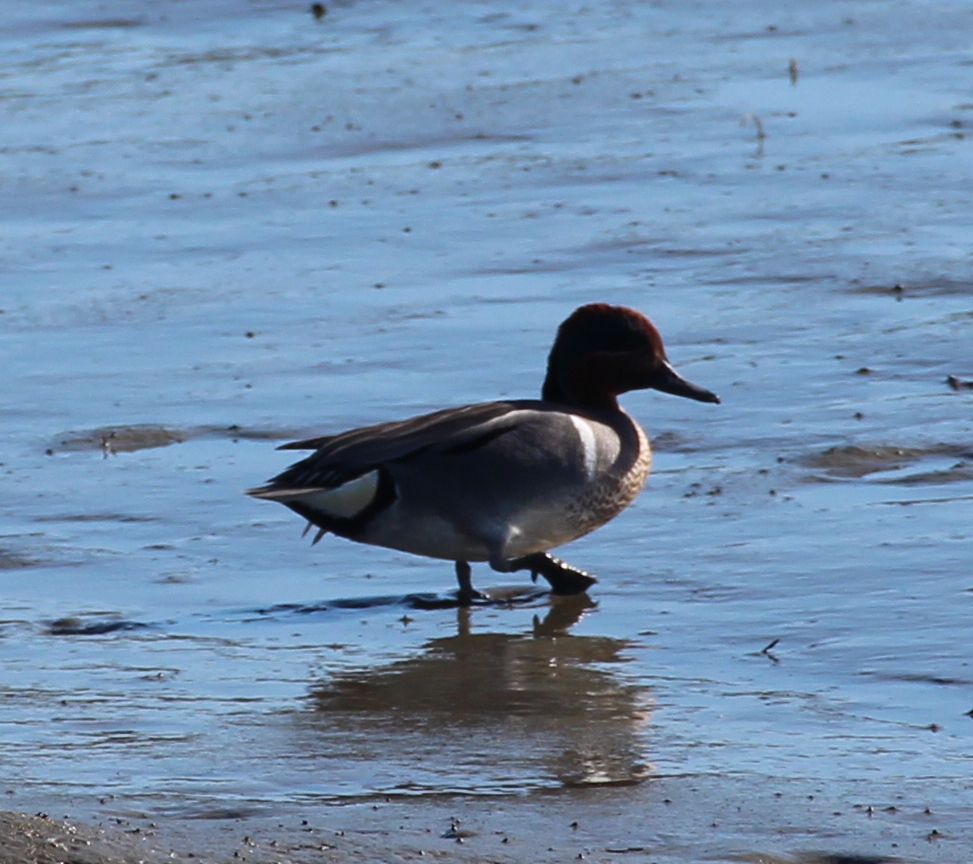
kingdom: Animalia
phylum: Chordata
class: Aves
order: Anseriformes
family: Anatidae
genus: Anas
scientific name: Anas crecca
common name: Eurasian teal
